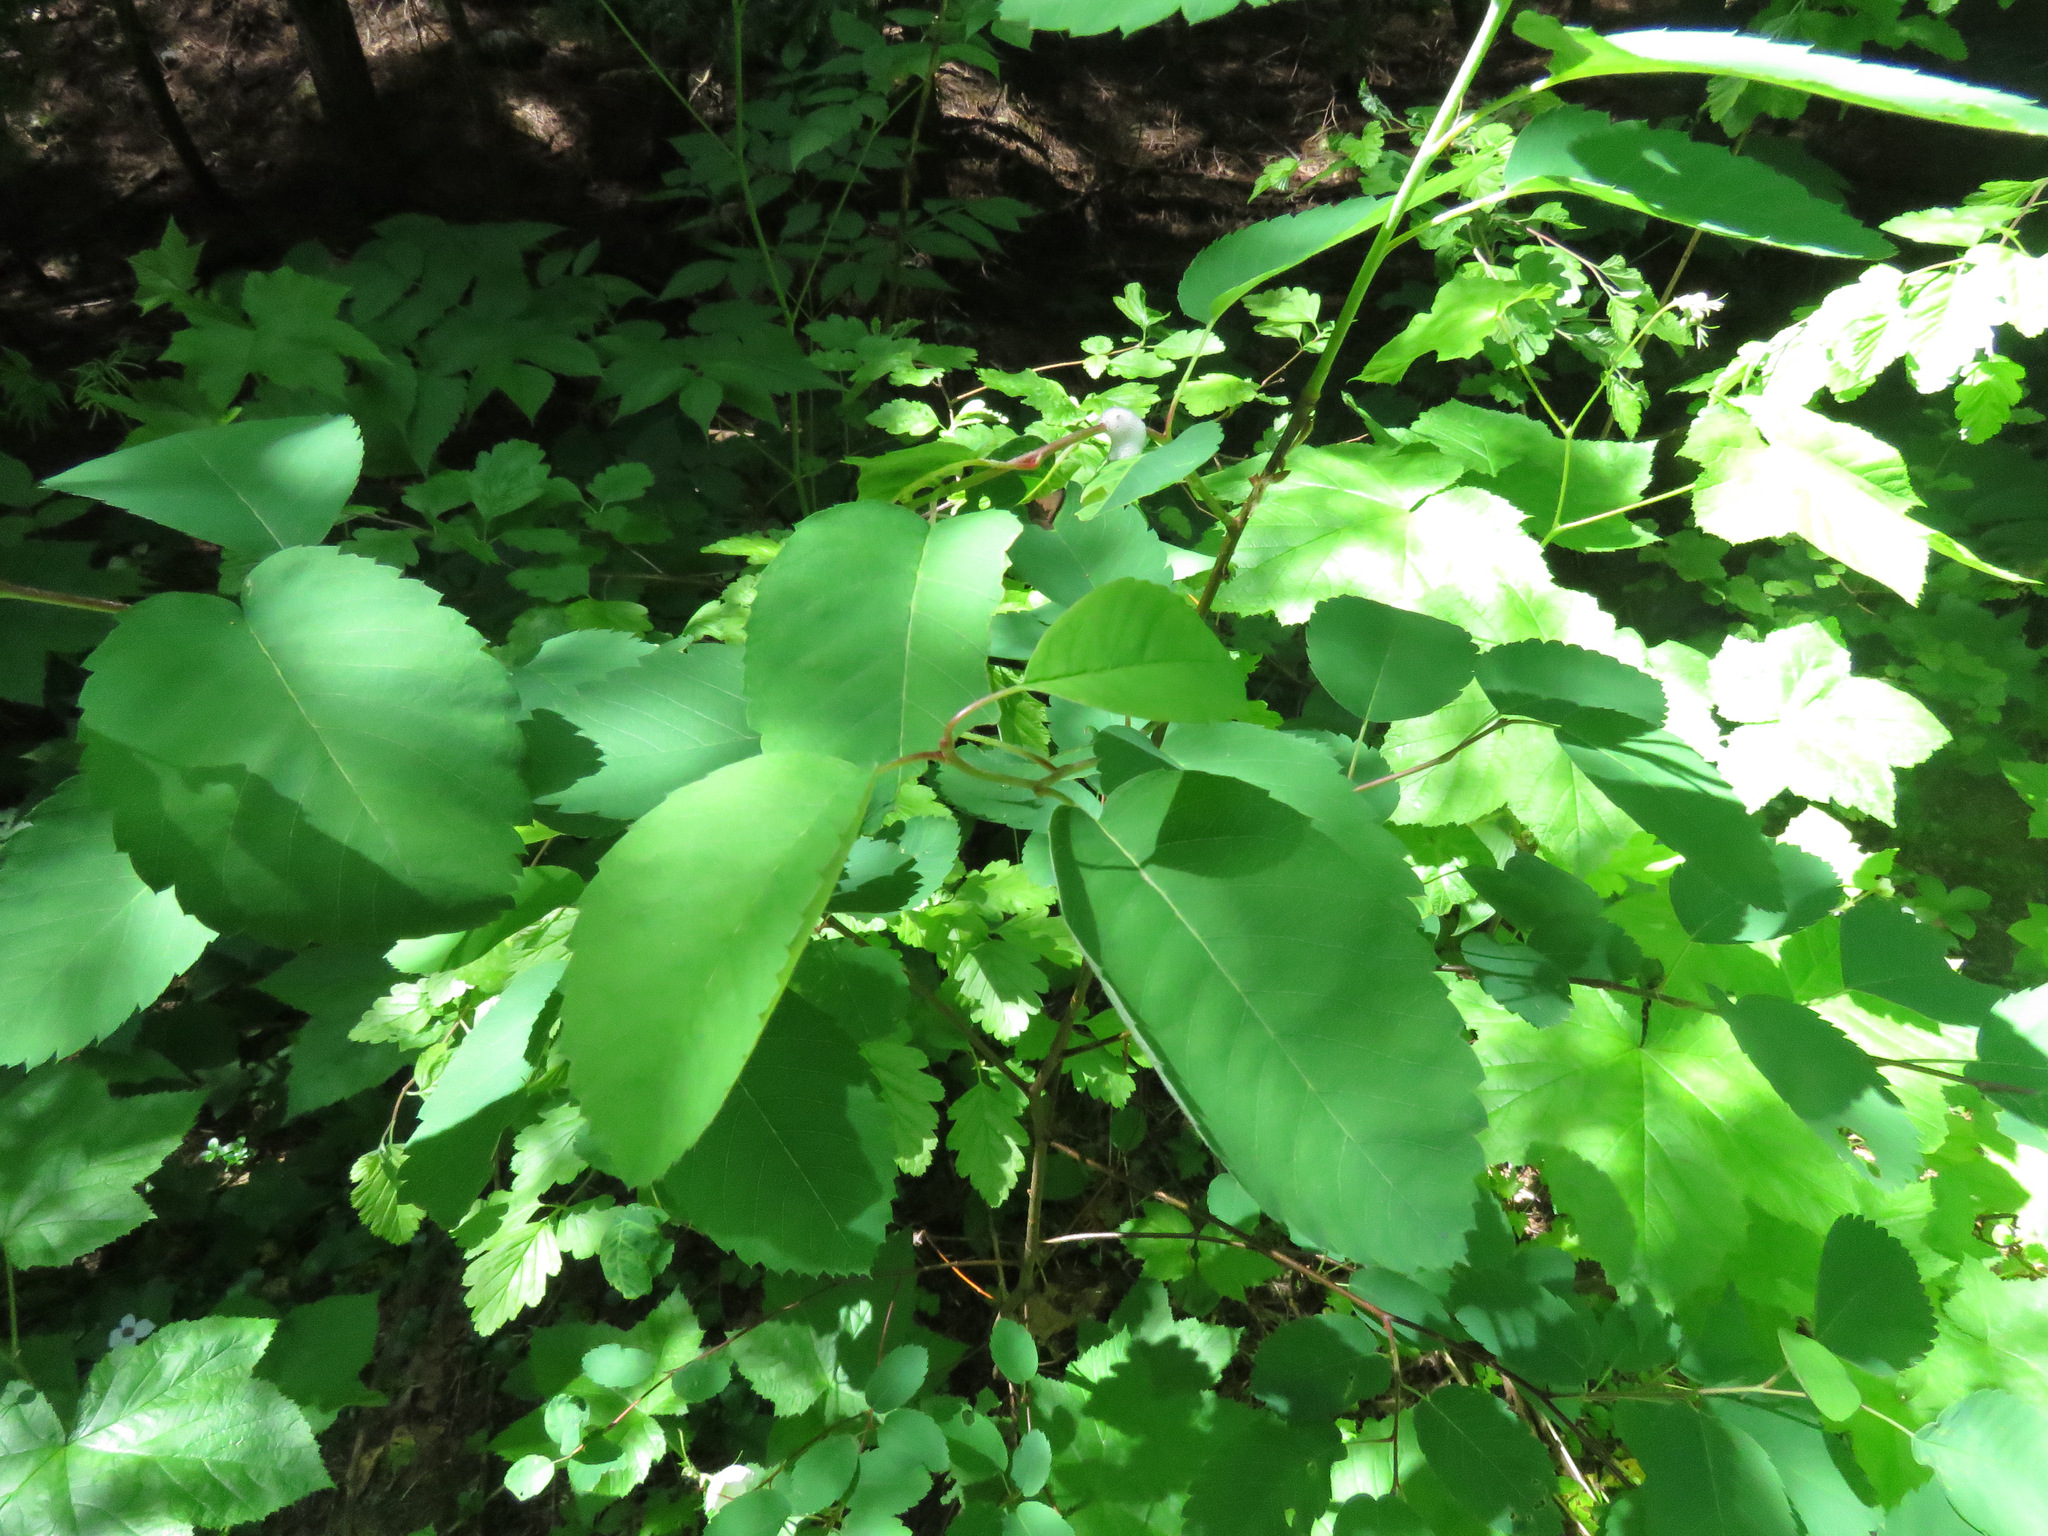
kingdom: Plantae
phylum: Tracheophyta
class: Magnoliopsida
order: Rosales
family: Rosaceae
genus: Amelanchier
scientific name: Amelanchier alnifolia
